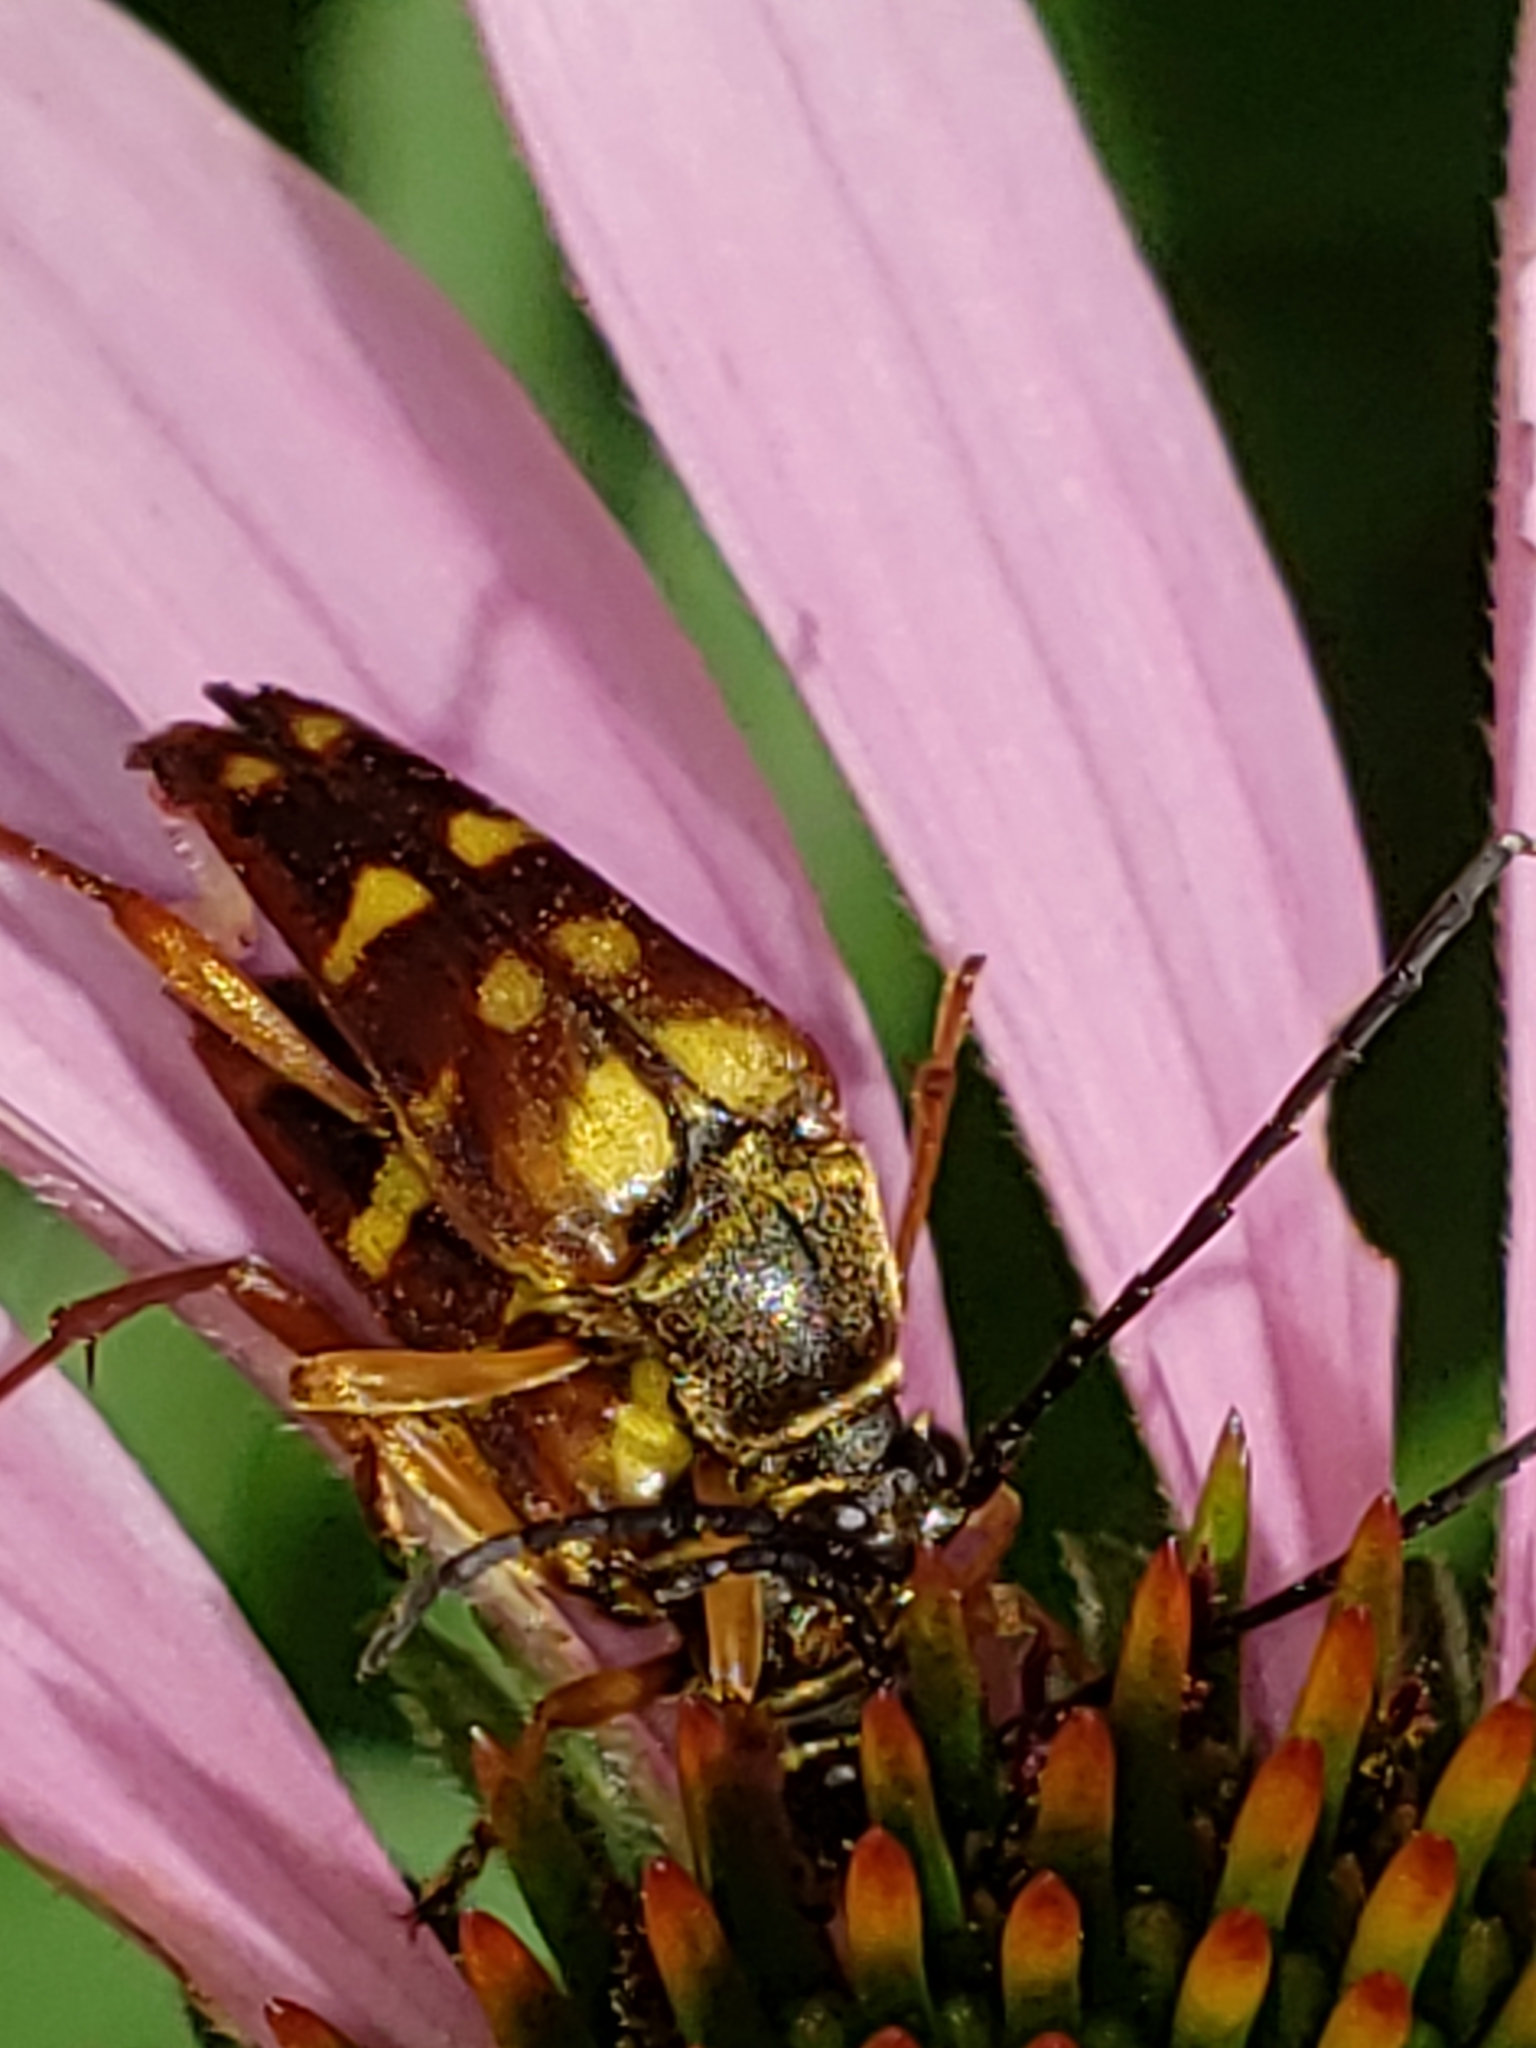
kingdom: Animalia
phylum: Arthropoda
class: Insecta
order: Coleoptera
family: Cerambycidae
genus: Typocerus
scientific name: Typocerus velutinus
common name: Banded longhorn beetle
